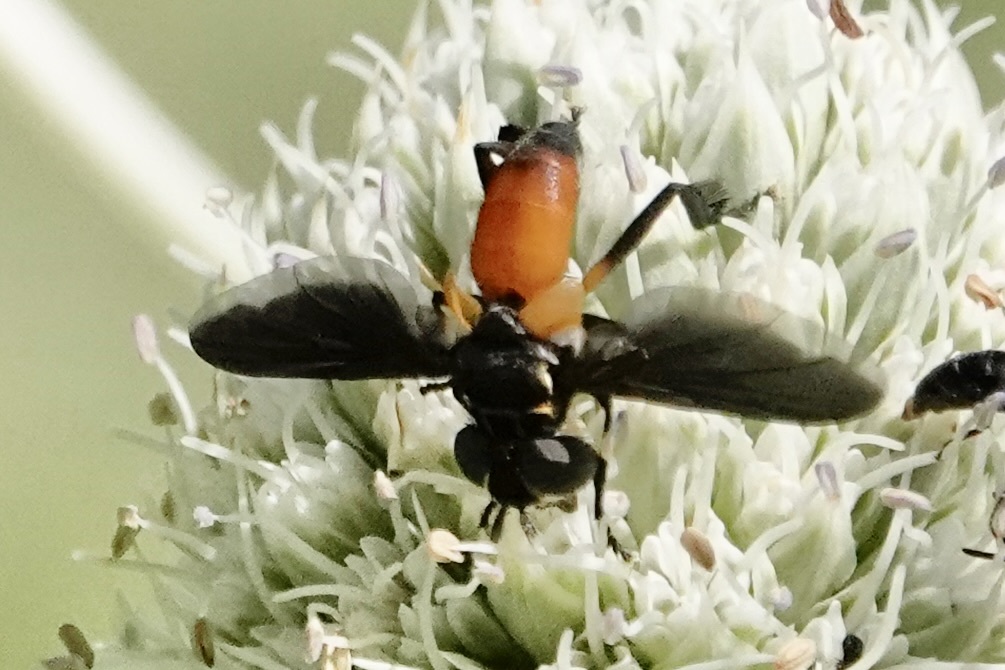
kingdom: Animalia
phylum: Arthropoda
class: Insecta
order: Diptera
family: Tachinidae
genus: Trichopoda
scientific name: Trichopoda pennipes
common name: Tachinid fly
